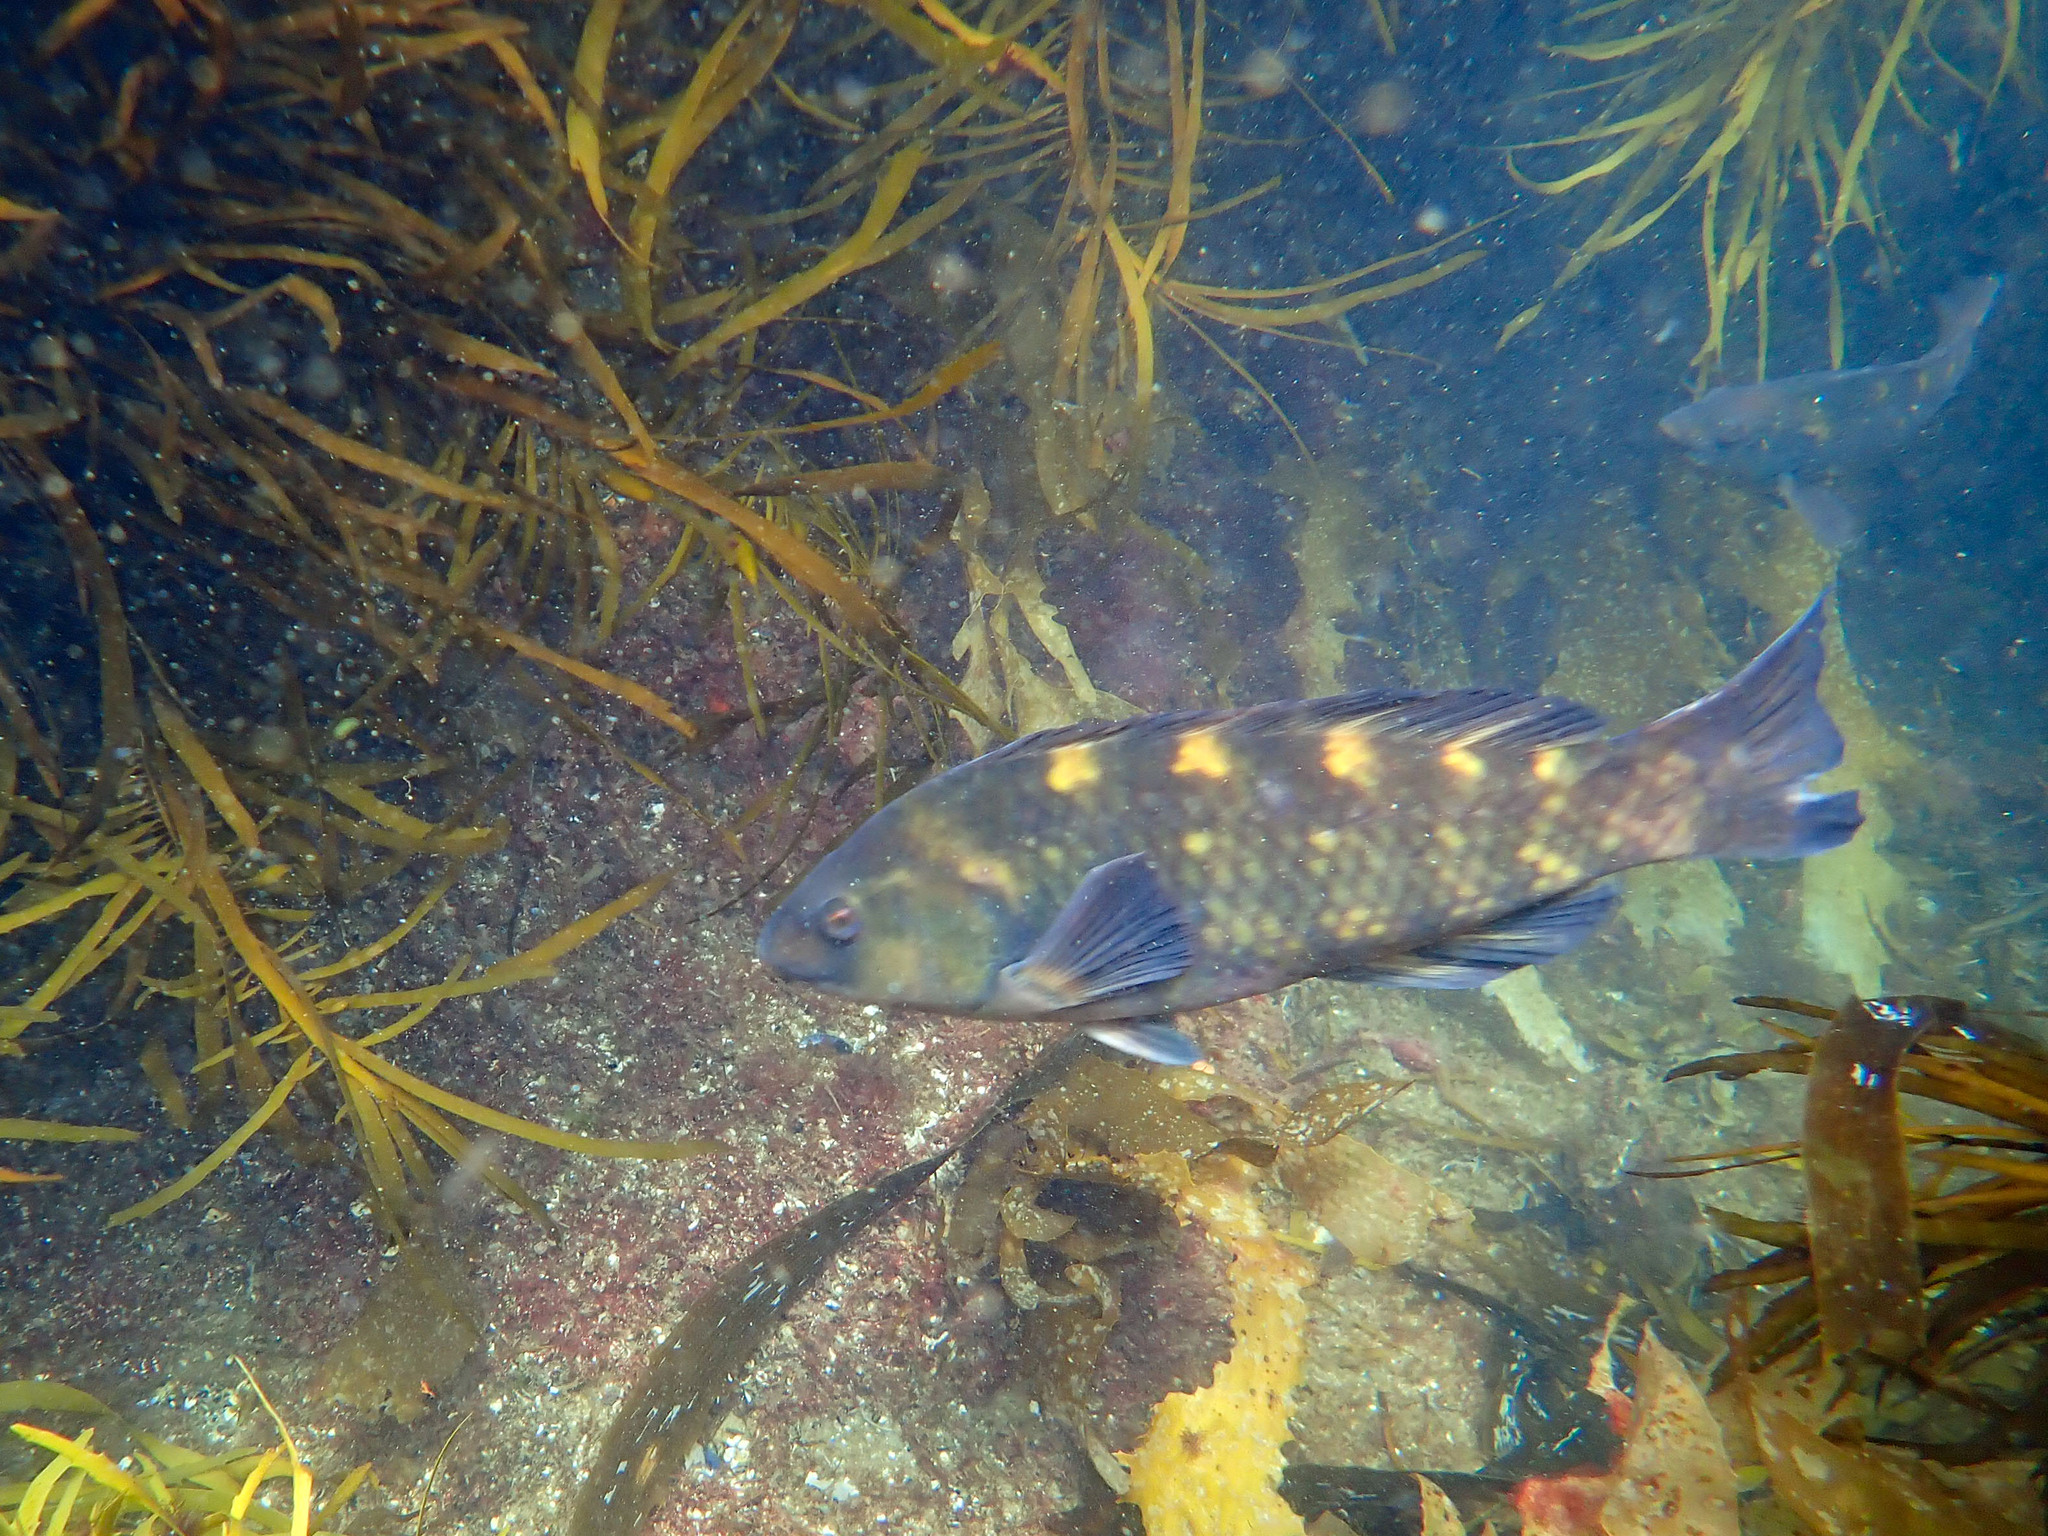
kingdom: Animalia
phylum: Chordata
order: Perciformes
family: Labridae
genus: Notolabrus
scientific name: Notolabrus fucicola
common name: Banded parrotfish
